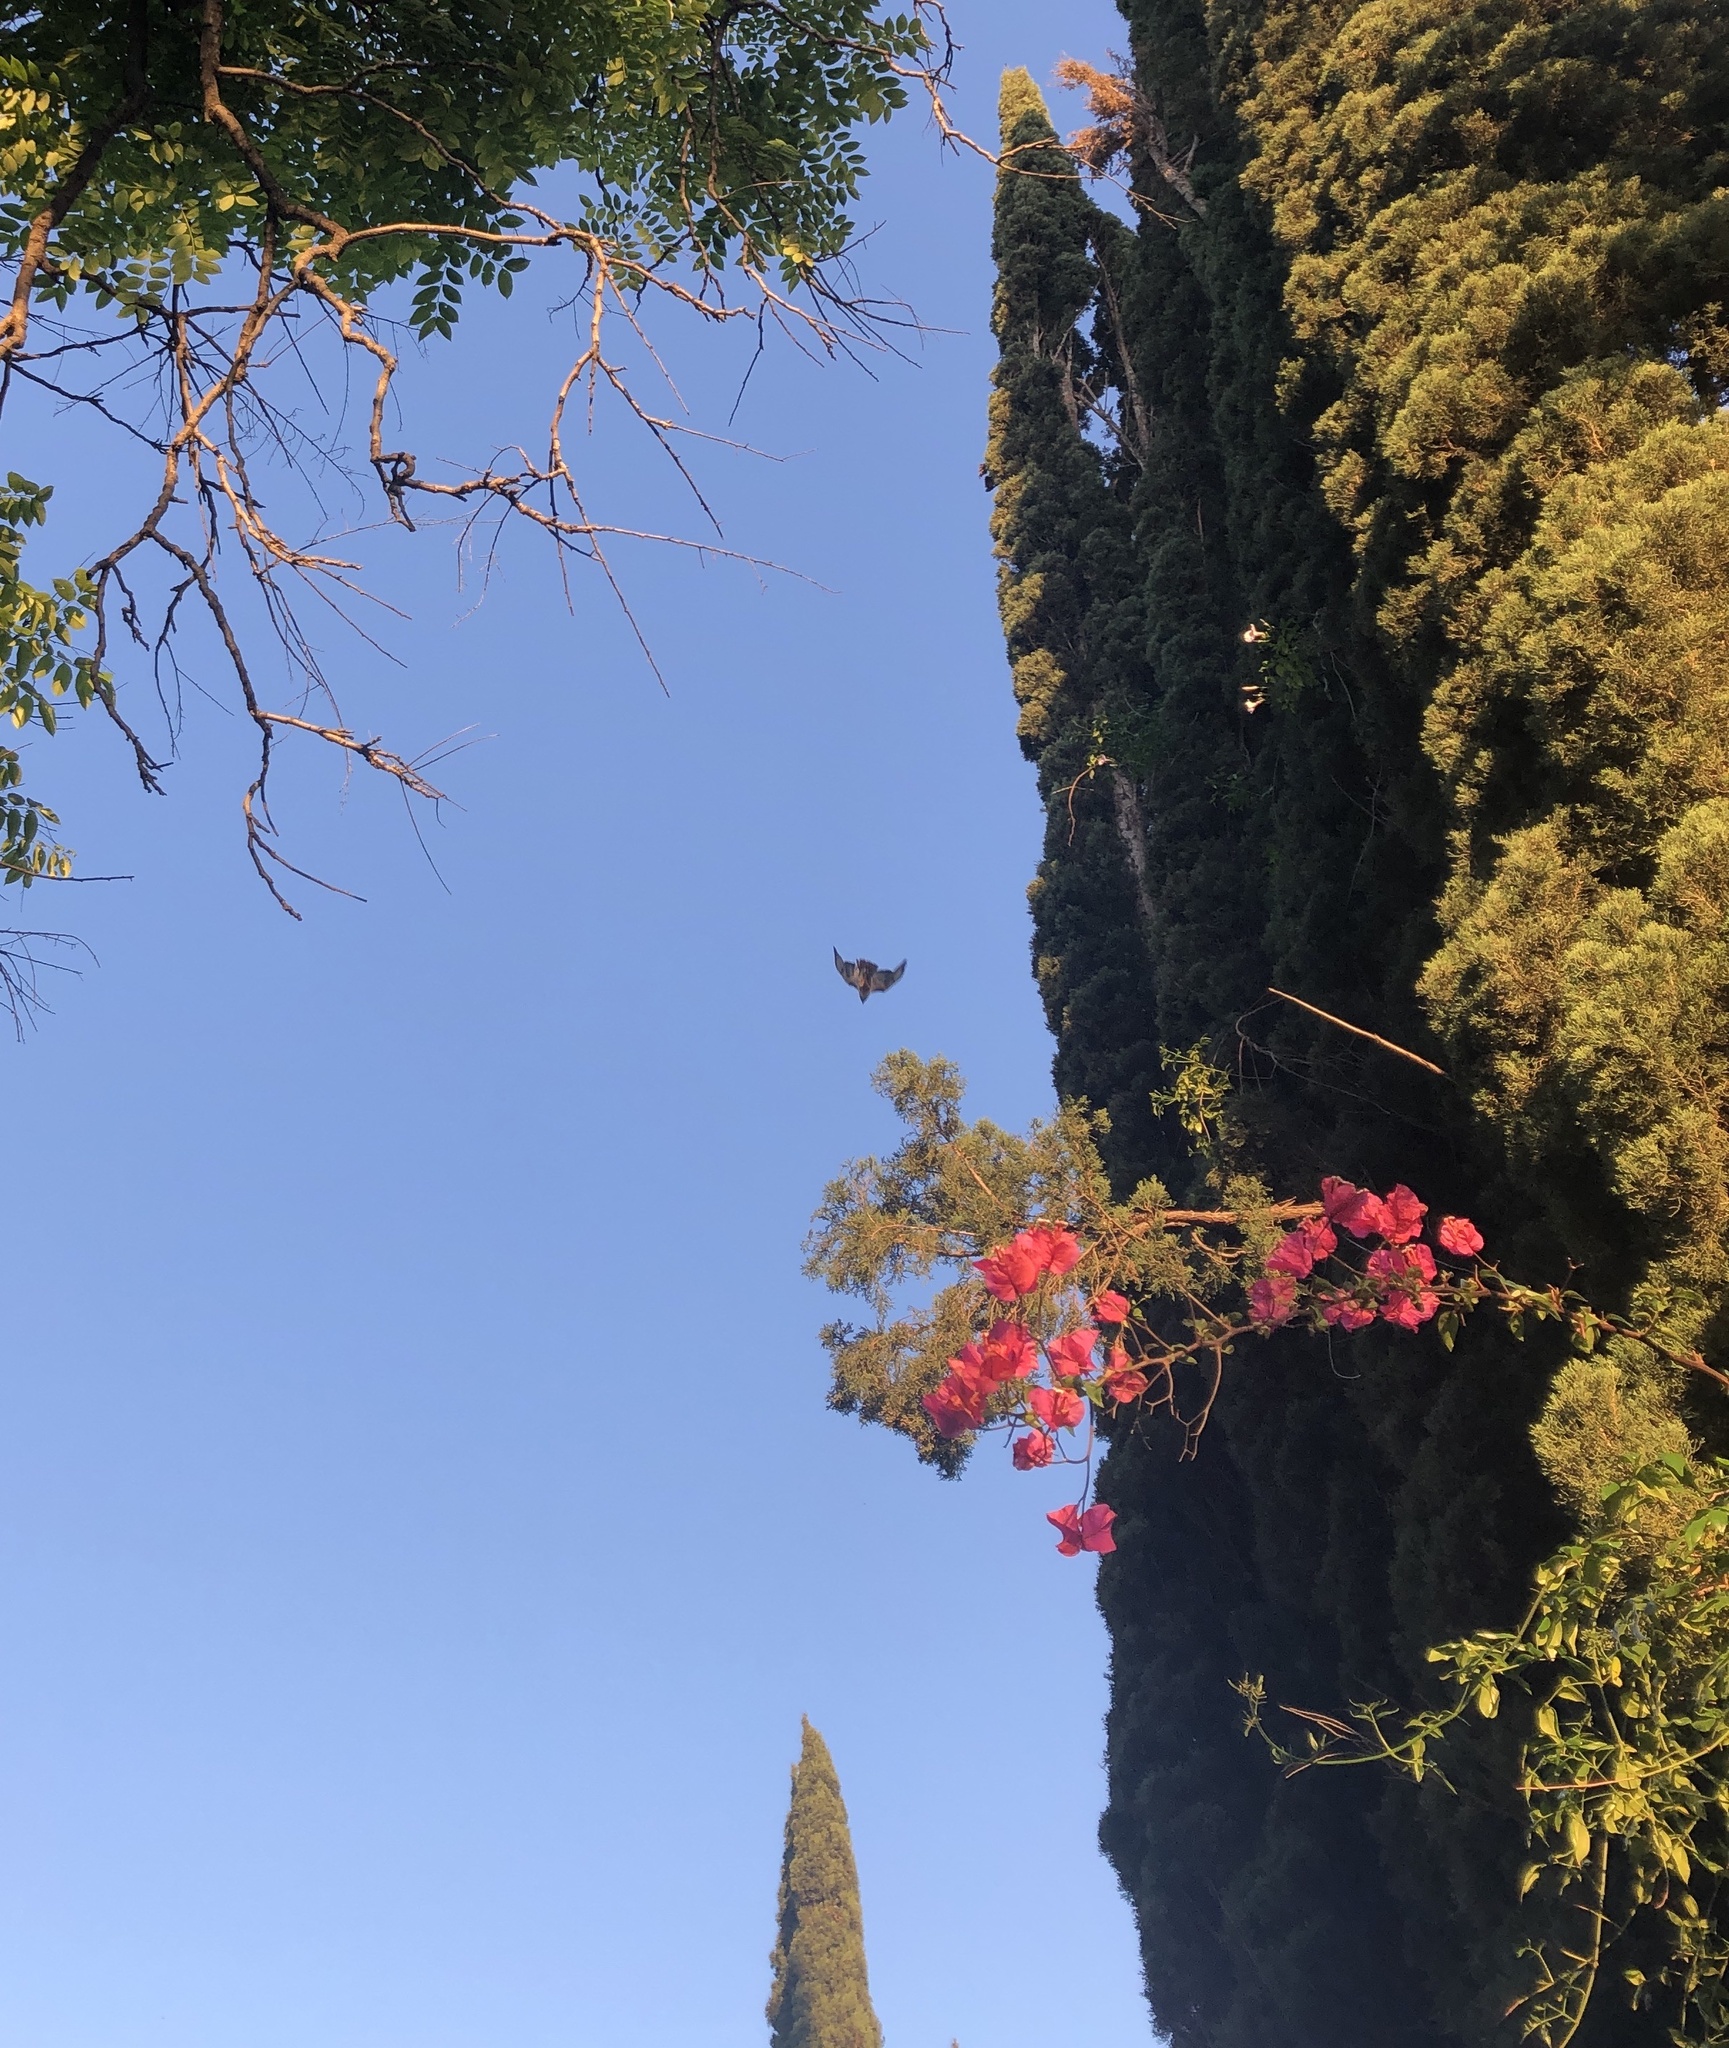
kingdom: Animalia
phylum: Chordata
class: Aves
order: Accipitriformes
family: Accipitridae
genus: Buteo
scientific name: Buteo jamaicensis
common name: Red-tailed hawk
